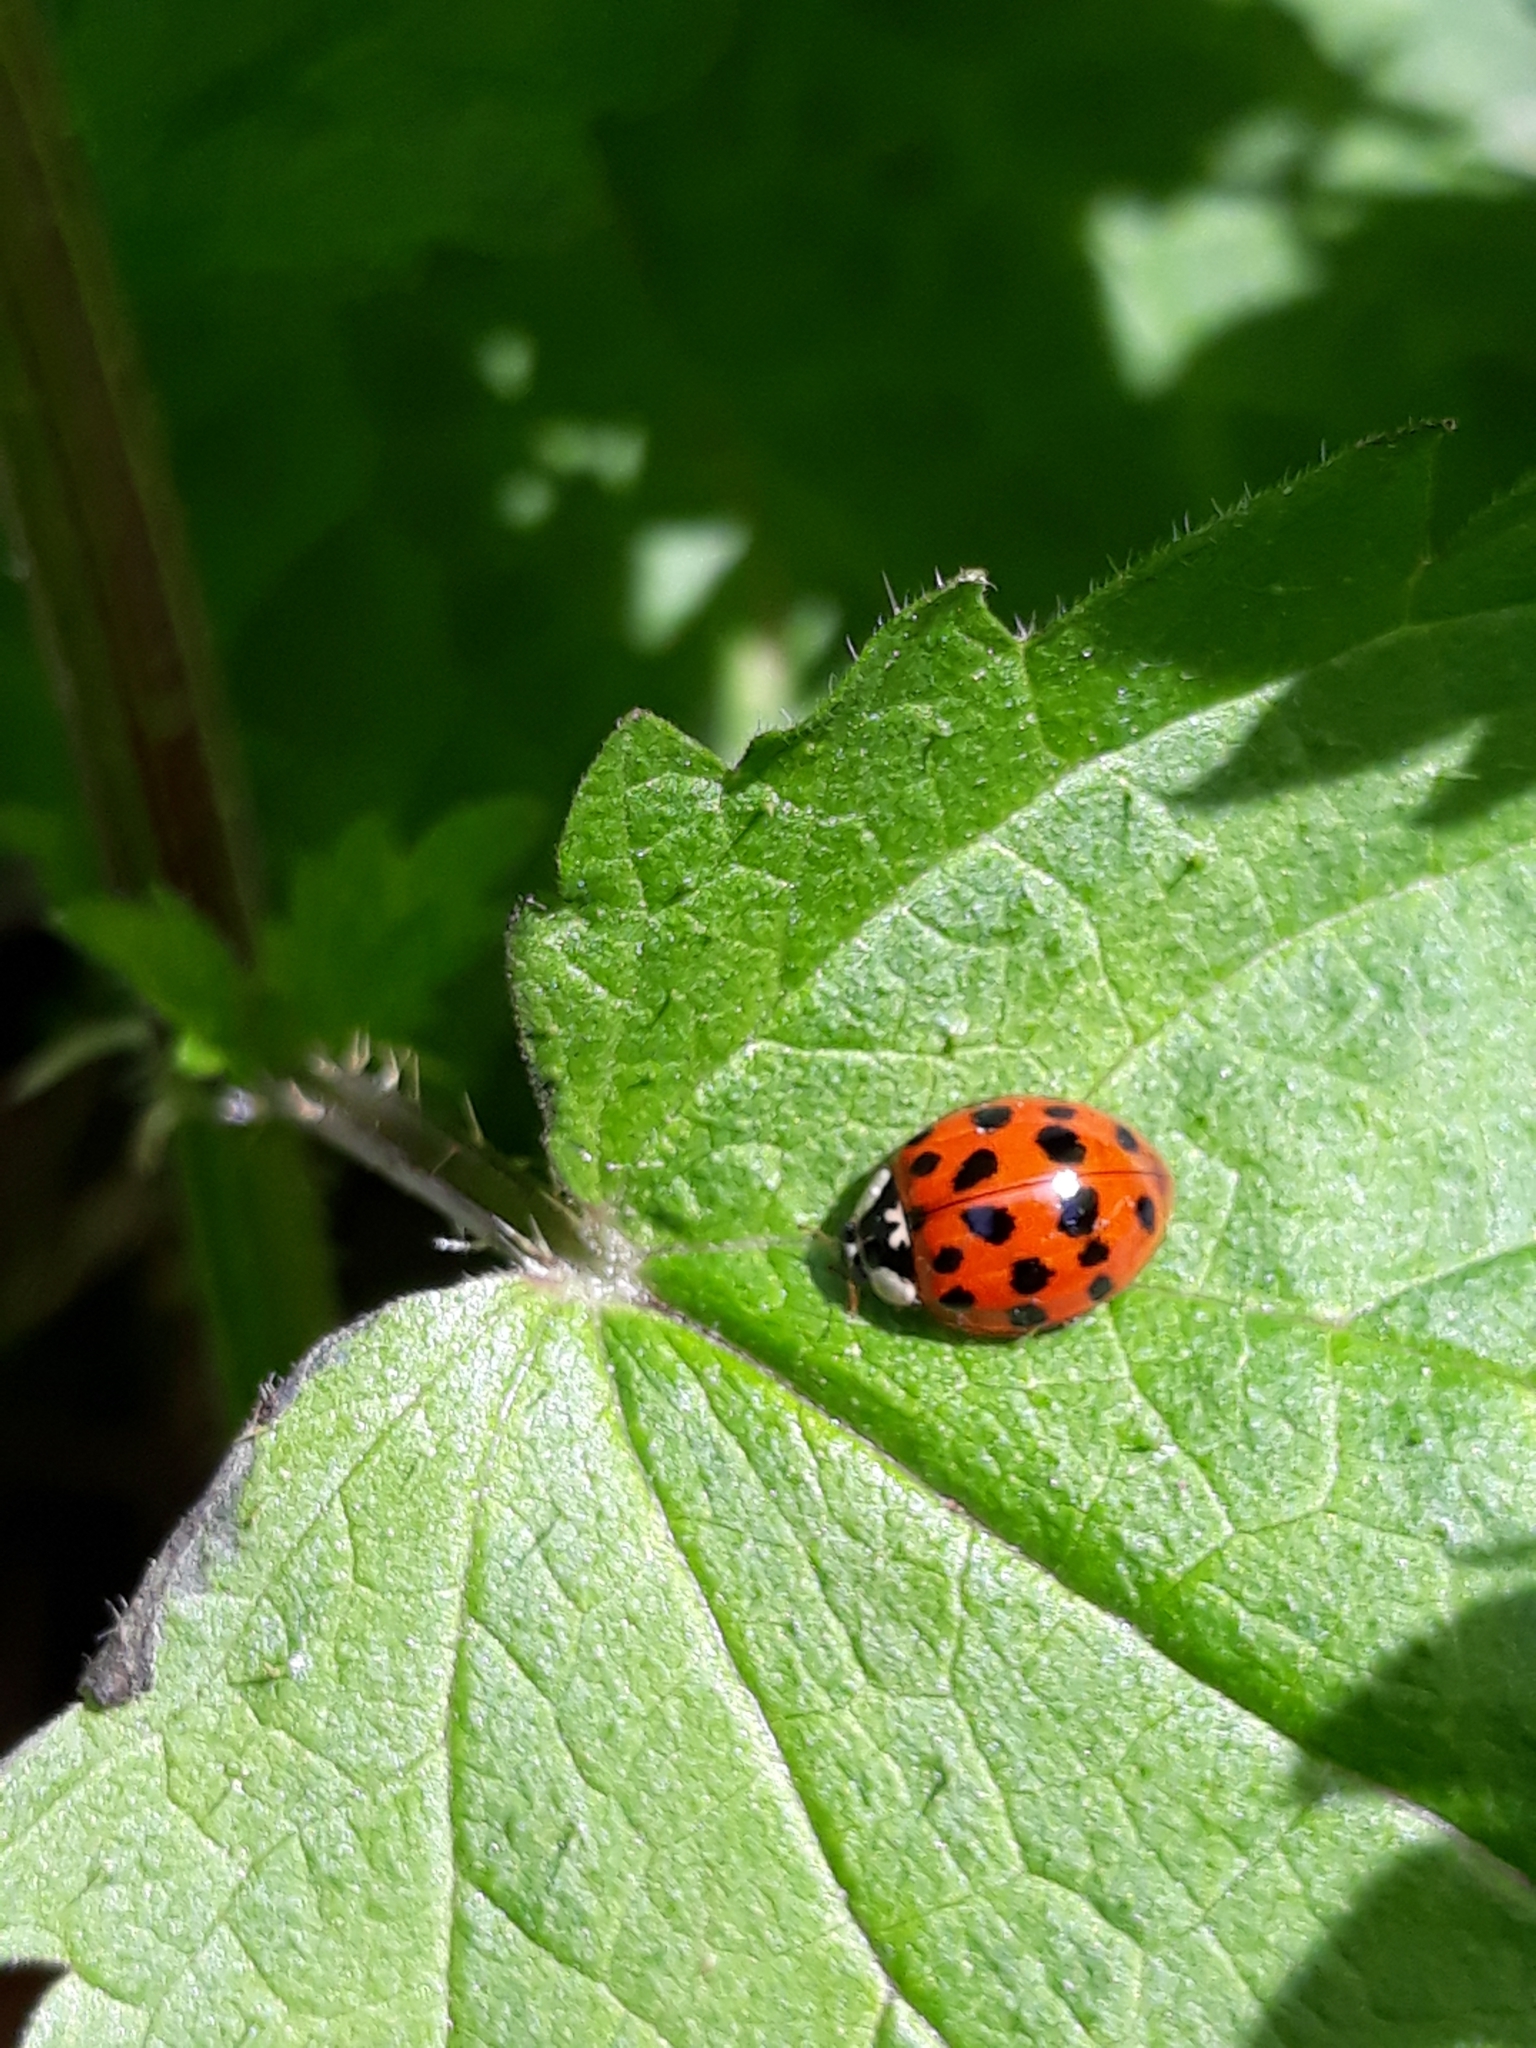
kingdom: Animalia
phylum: Arthropoda
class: Insecta
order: Coleoptera
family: Coccinellidae
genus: Harmonia
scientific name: Harmonia axyridis
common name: Harlequin ladybird
